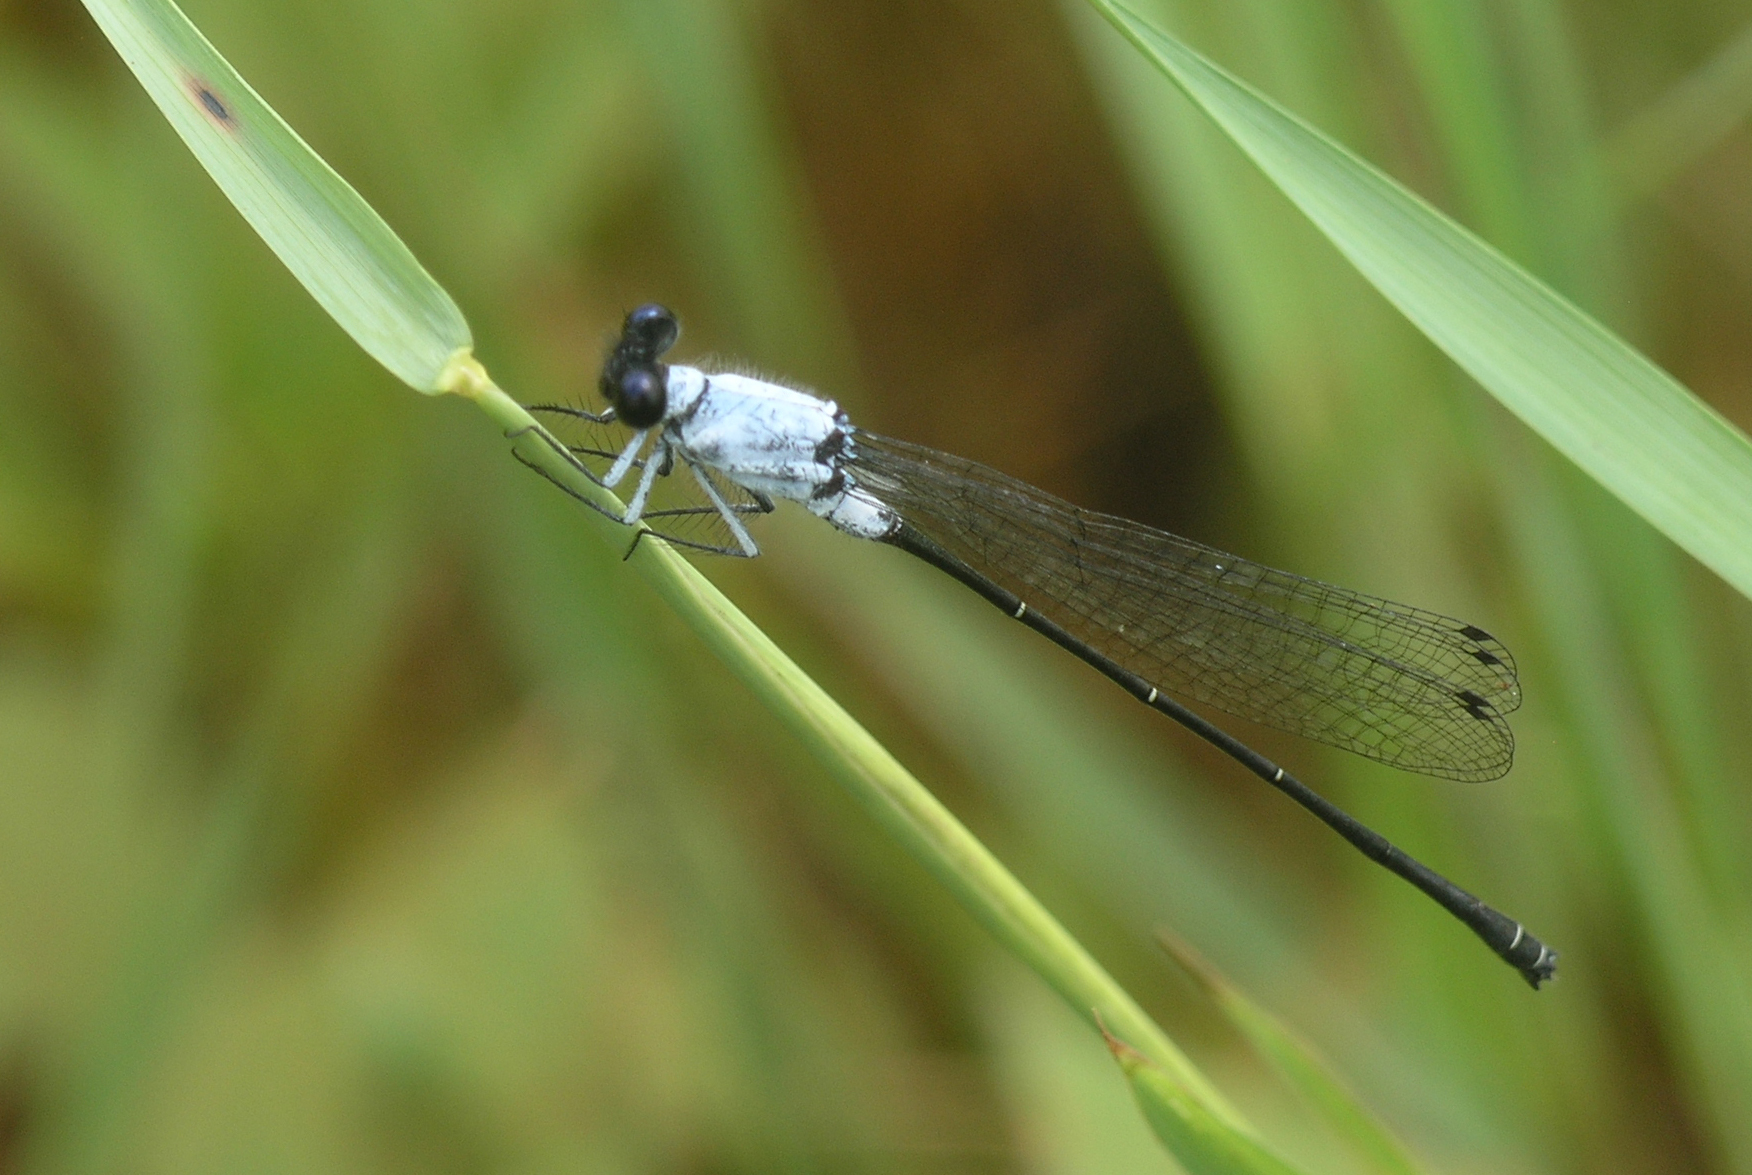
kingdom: Animalia
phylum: Arthropoda
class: Insecta
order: Odonata
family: Platycnemididae
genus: Onychargia
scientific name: Onychargia priydak
